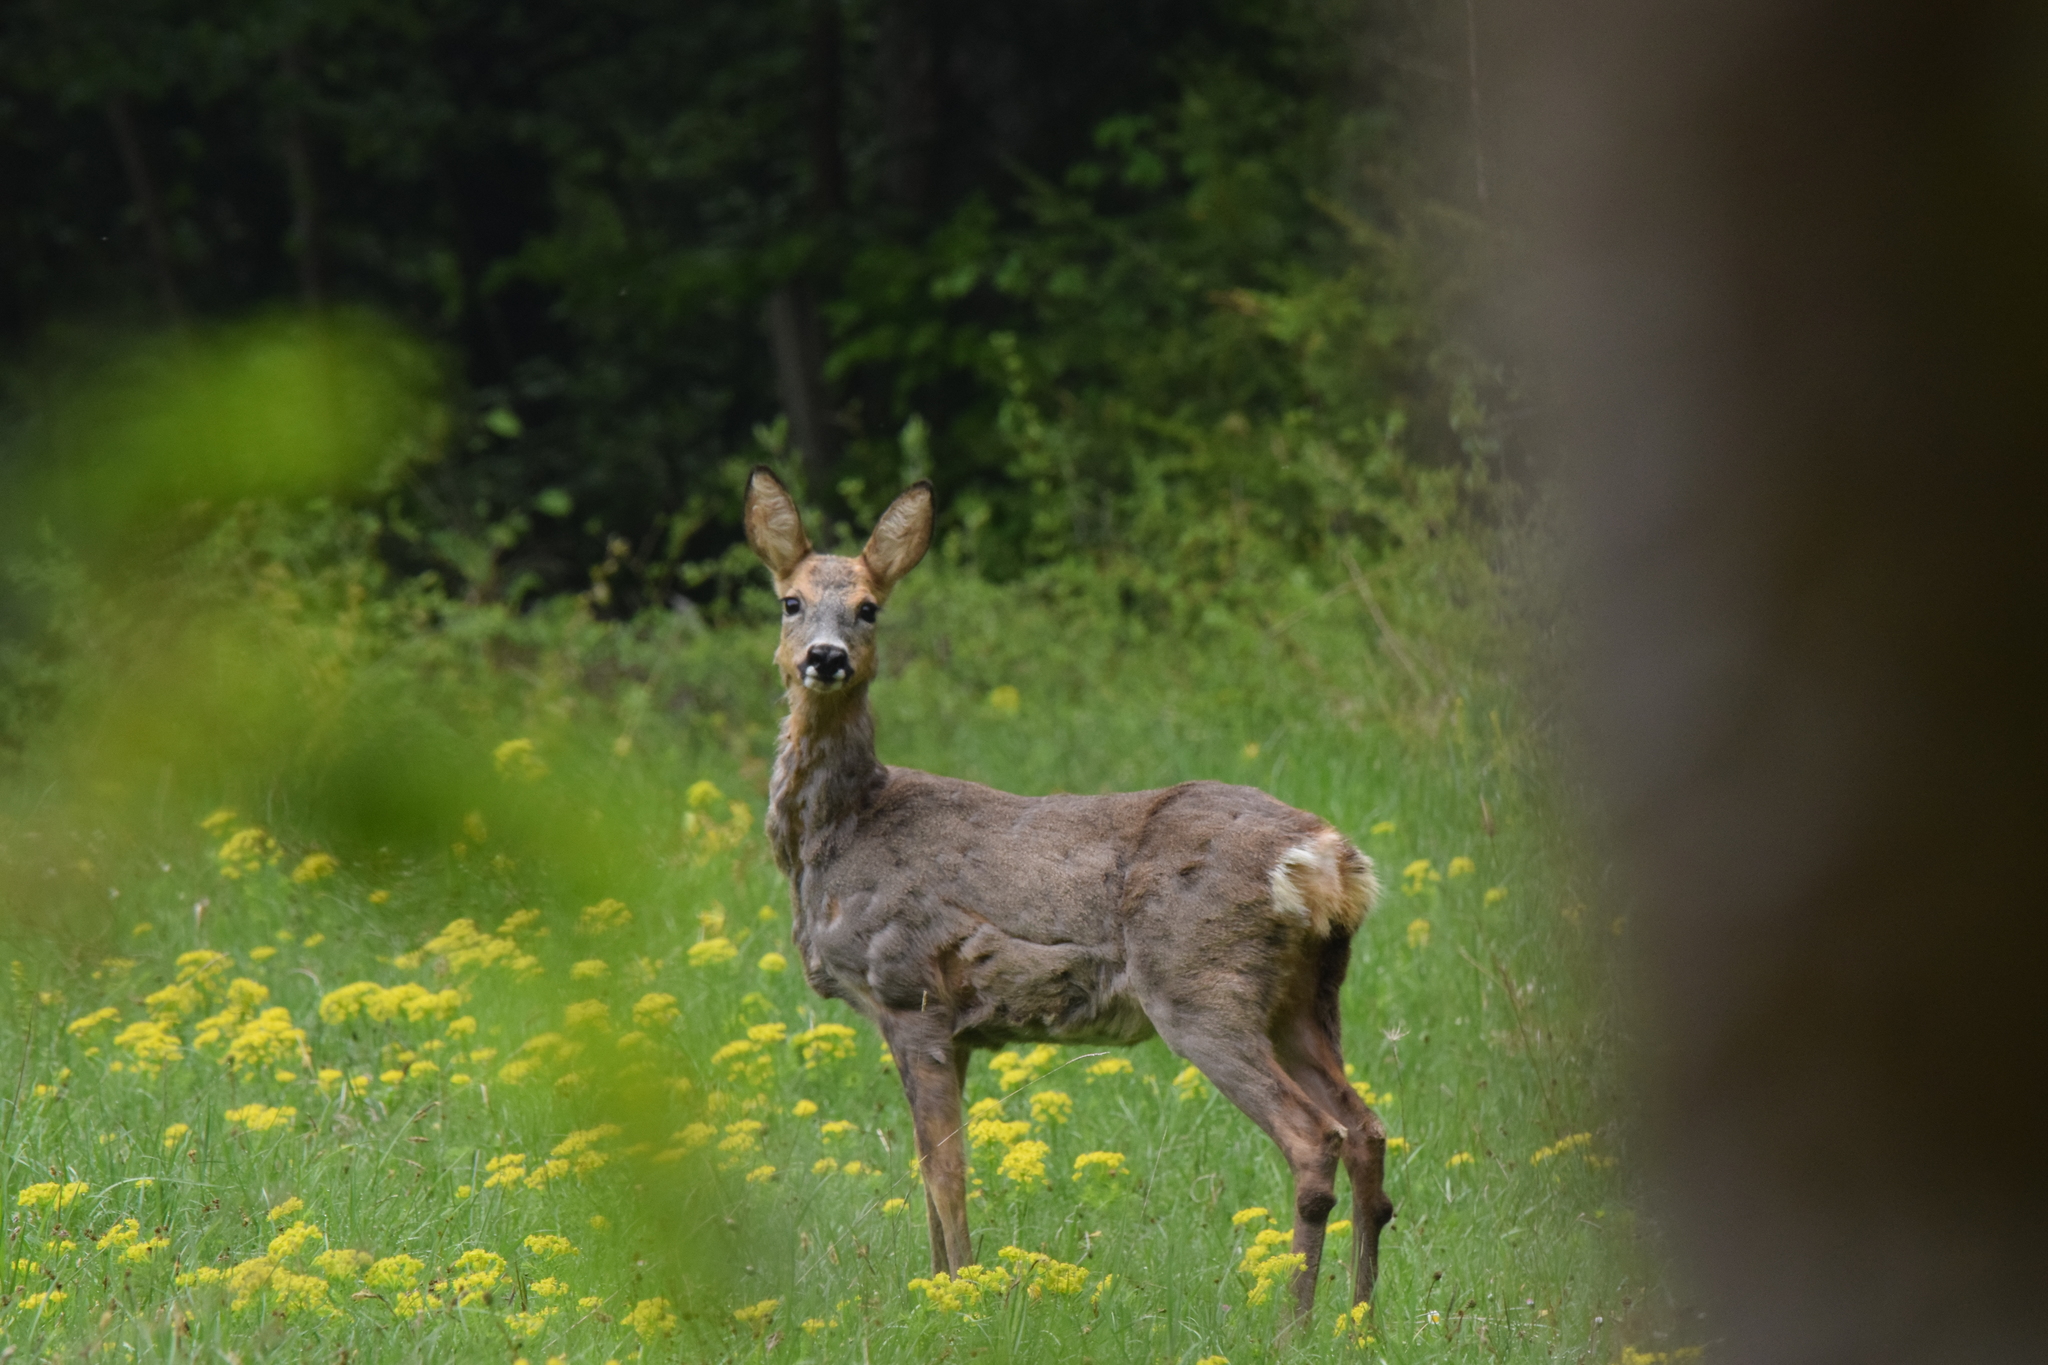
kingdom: Animalia
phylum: Chordata
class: Mammalia
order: Artiodactyla
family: Cervidae
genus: Capreolus
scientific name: Capreolus capreolus
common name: Western roe deer
